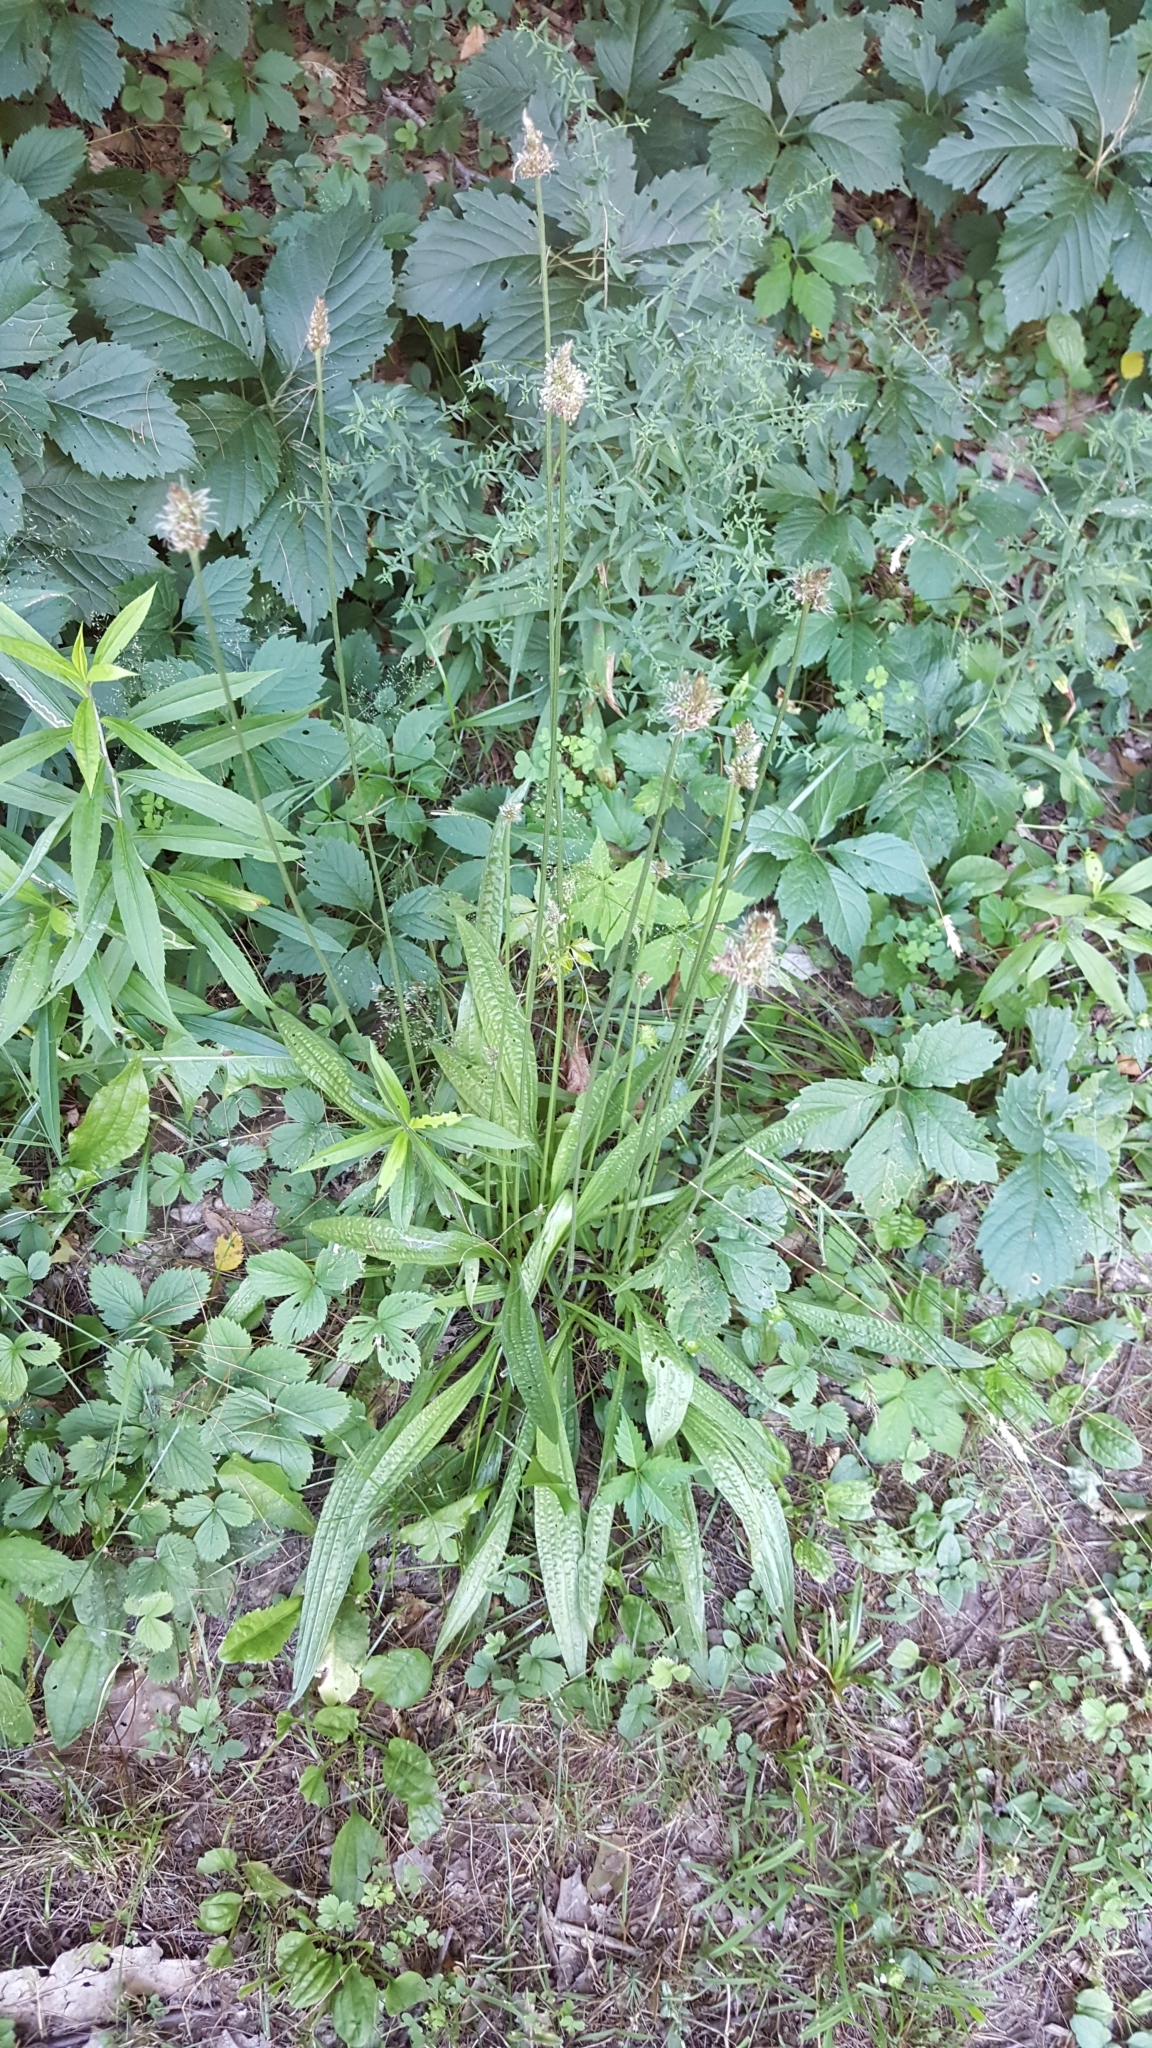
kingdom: Plantae
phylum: Tracheophyta
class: Magnoliopsida
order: Lamiales
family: Plantaginaceae
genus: Plantago
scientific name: Plantago lanceolata
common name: Ribwort plantain
